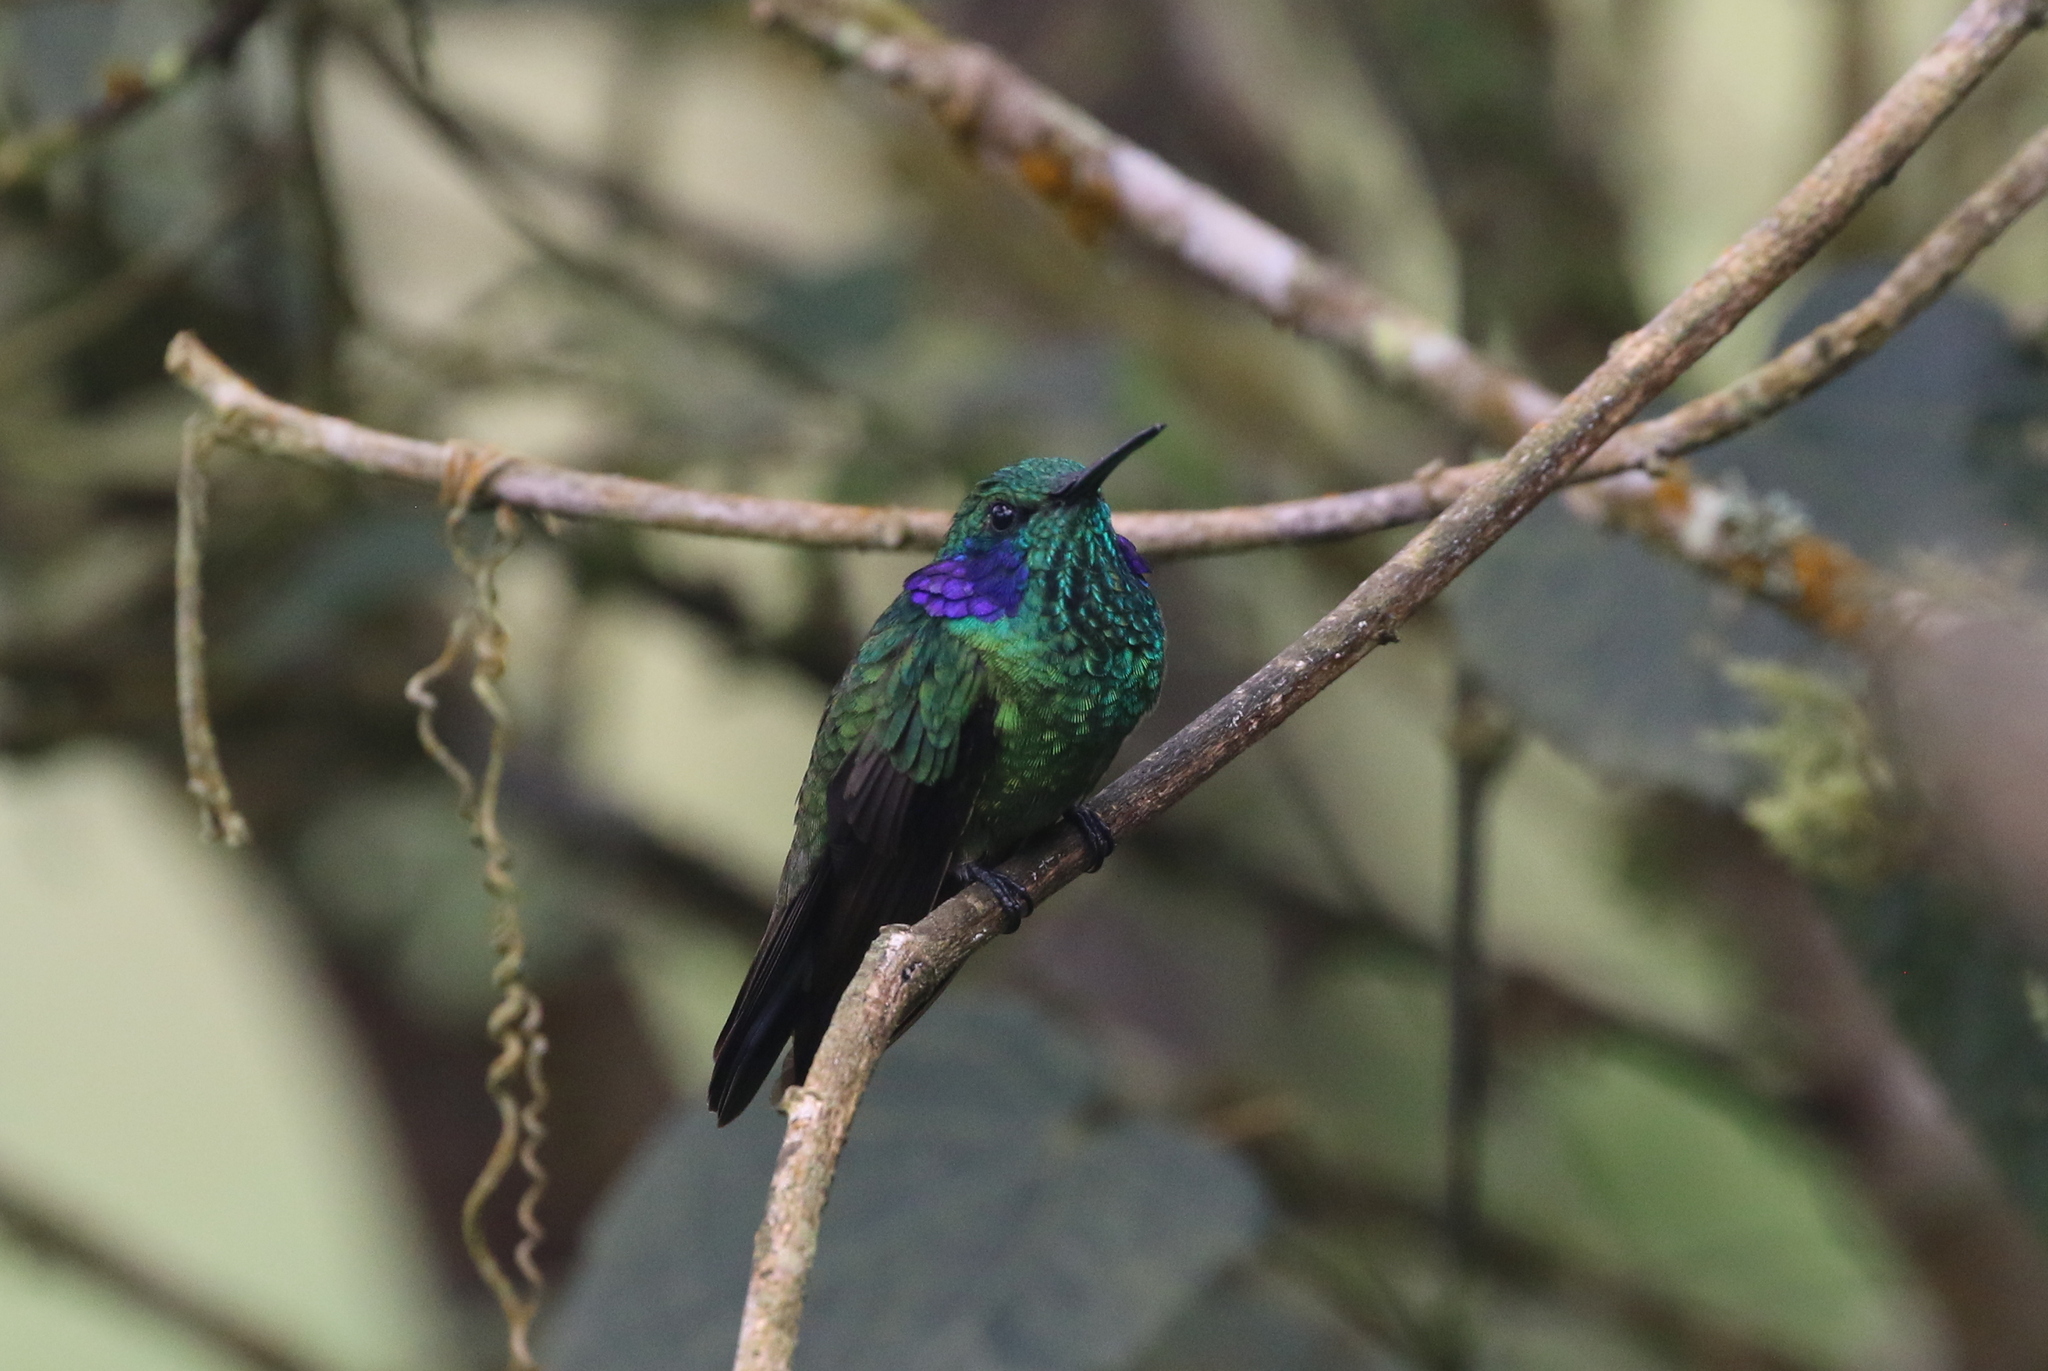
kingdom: Animalia
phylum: Chordata
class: Aves
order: Apodiformes
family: Trochilidae
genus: Colibri
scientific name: Colibri cyanotus
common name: Lesser violetear
